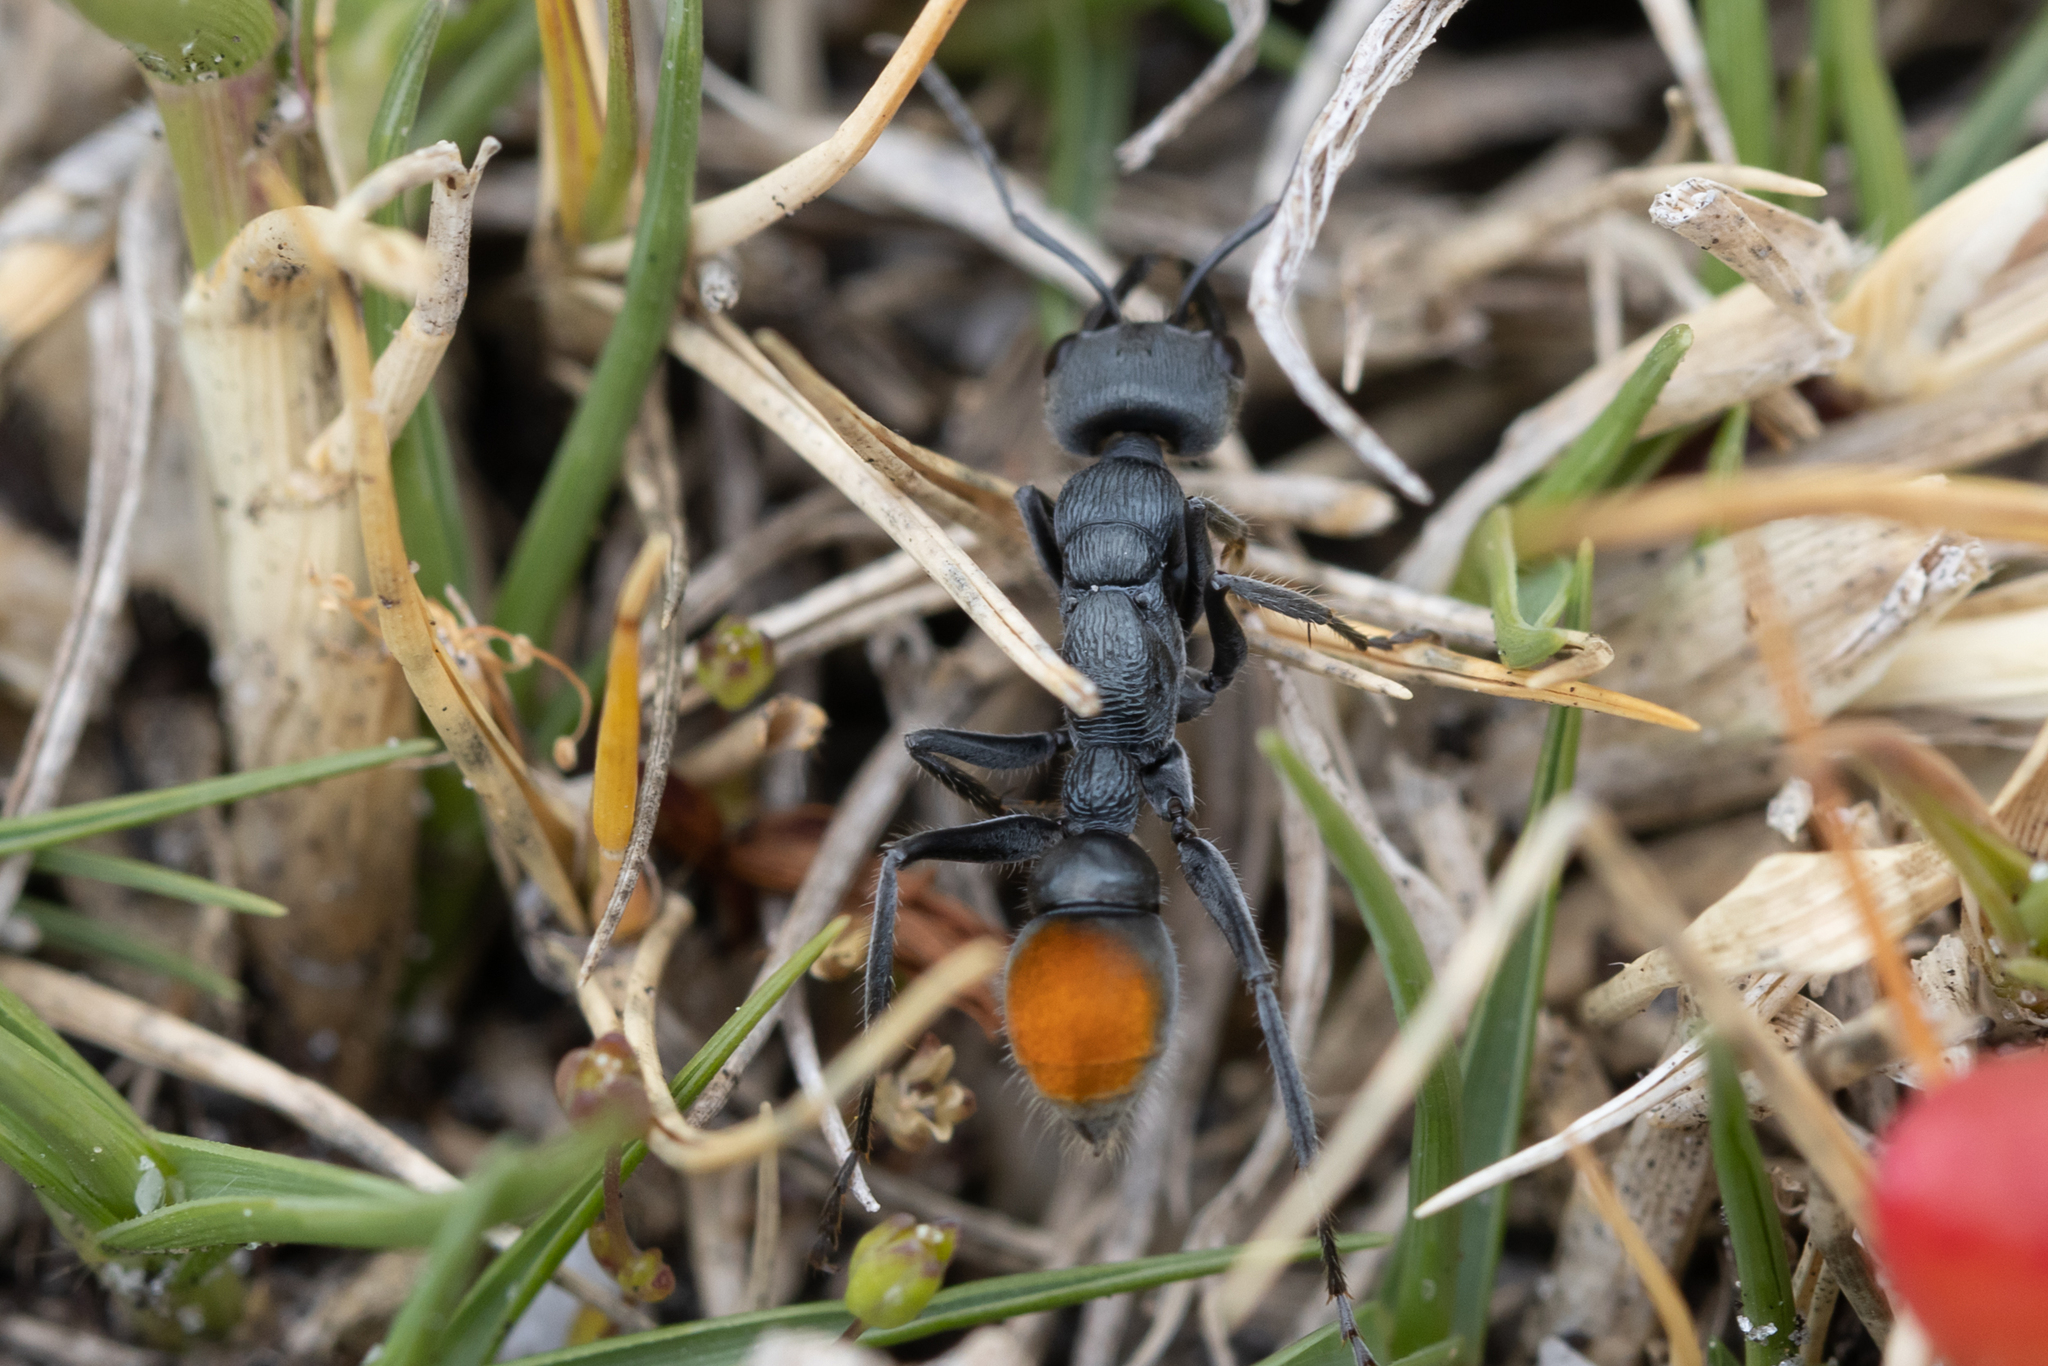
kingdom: Animalia
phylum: Arthropoda
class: Insecta
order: Hymenoptera
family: Formicidae
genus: Myrmecia
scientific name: Myrmecia mandibularis
